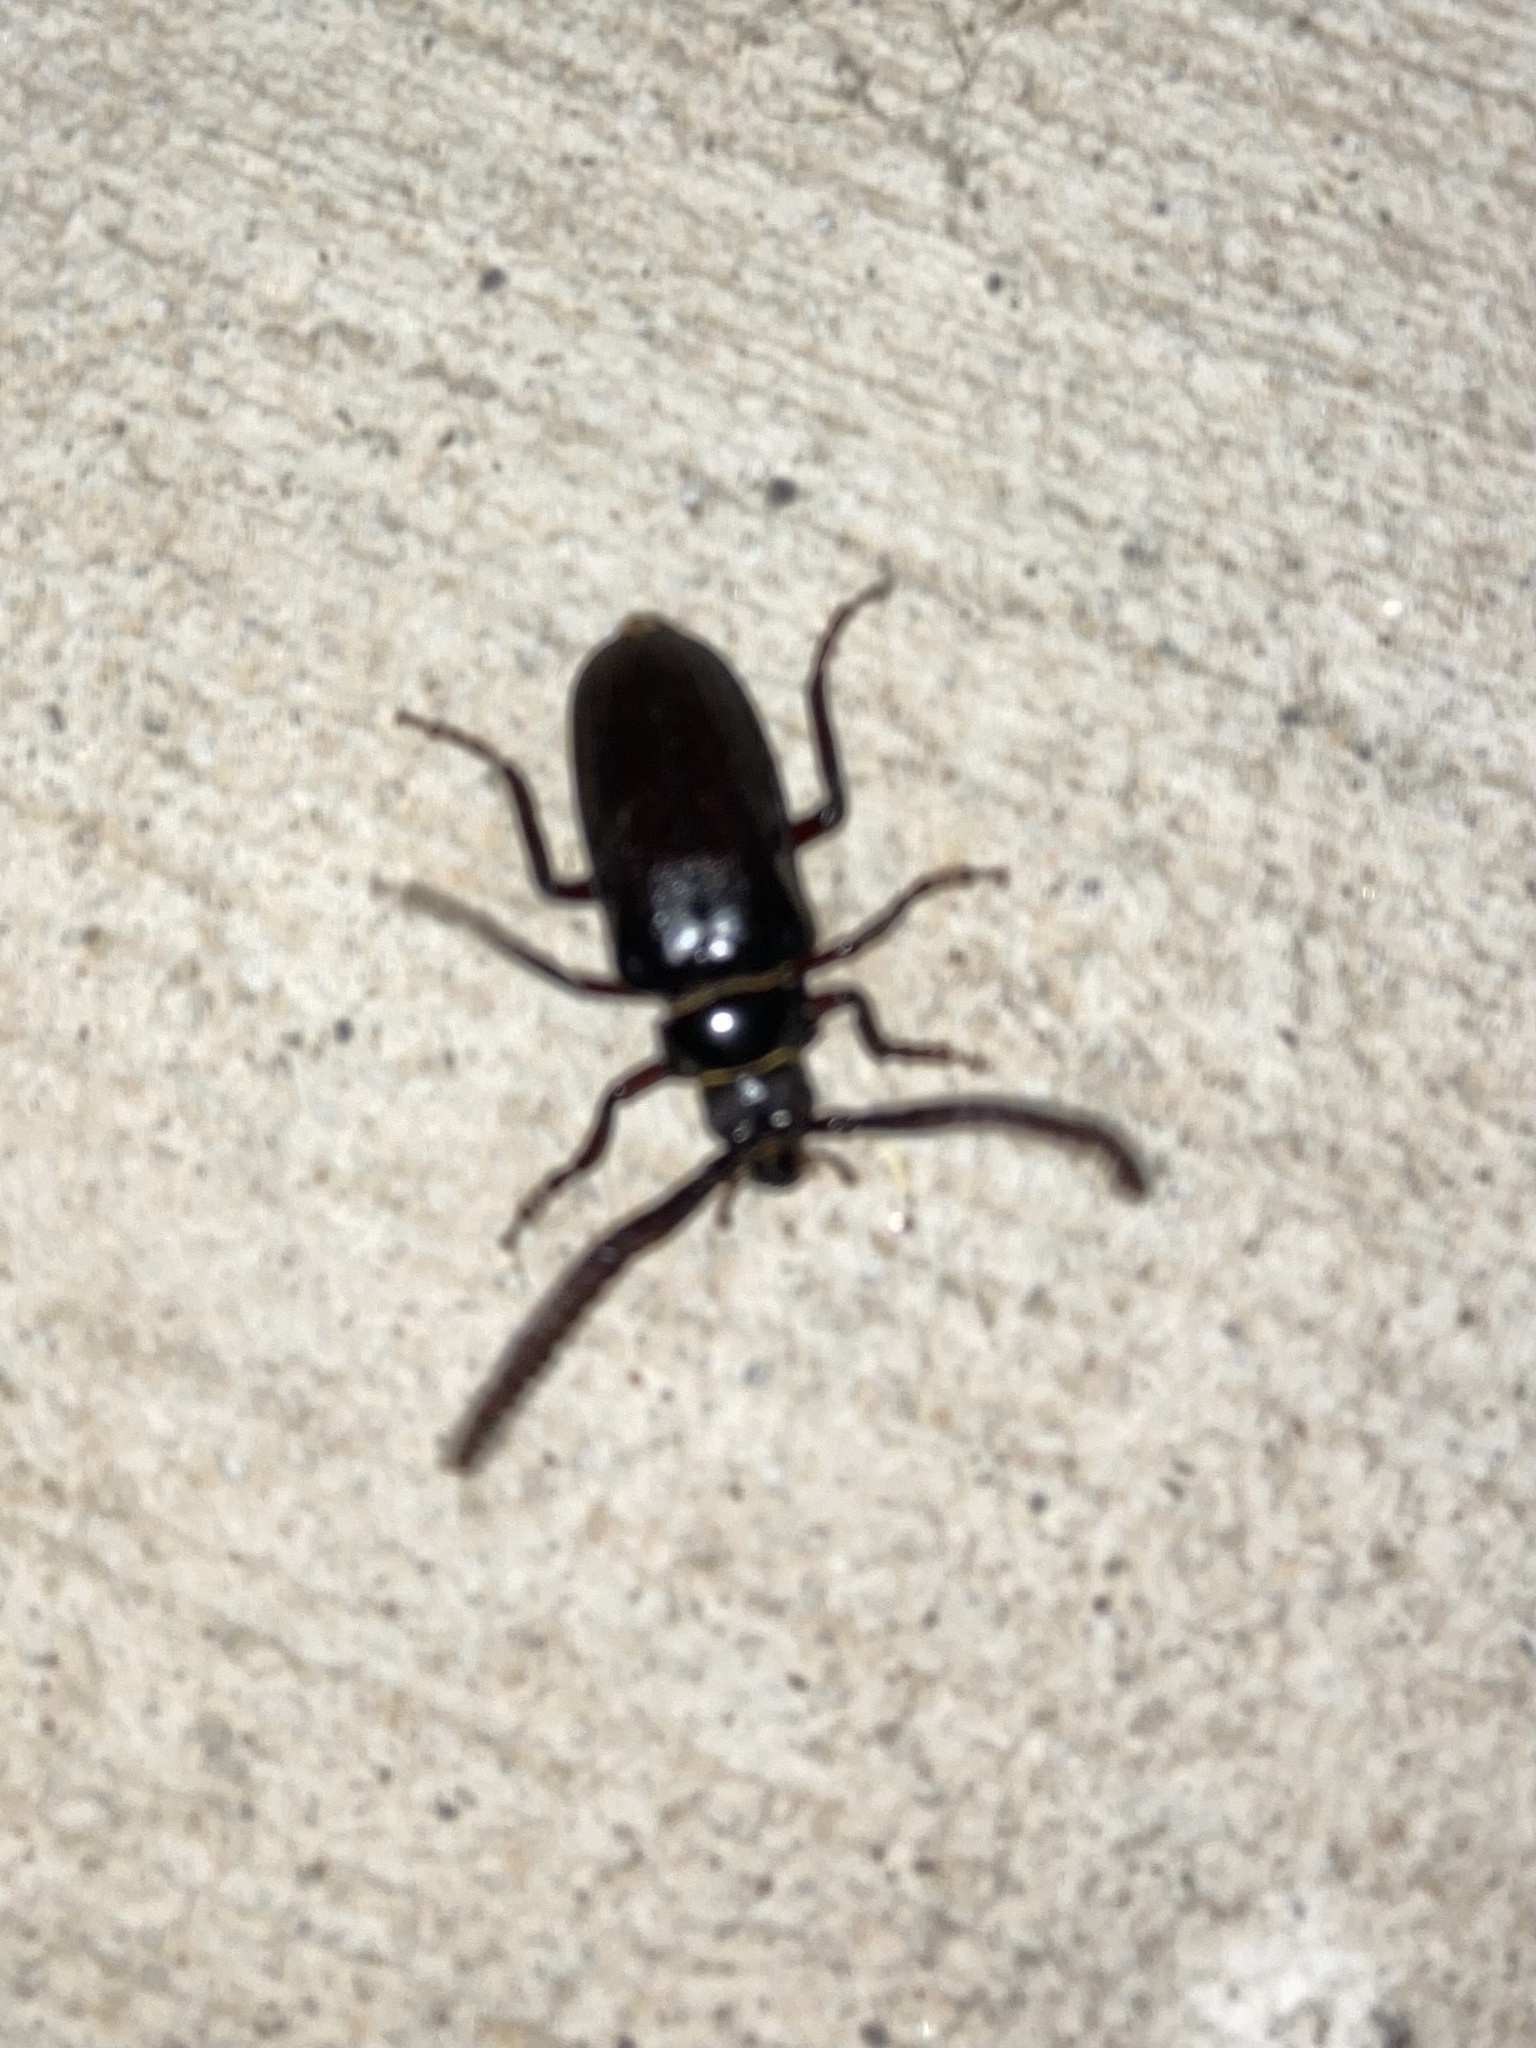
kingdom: Animalia
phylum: Arthropoda
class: Insecta
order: Coleoptera
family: Cerambycidae
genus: Prionus
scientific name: Prionus imbricornis
